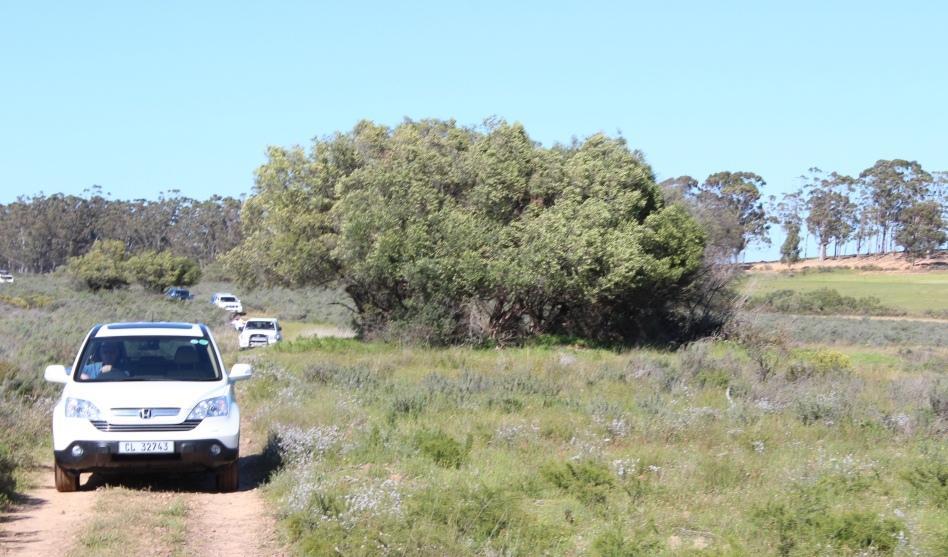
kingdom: Plantae
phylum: Tracheophyta
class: Magnoliopsida
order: Lamiales
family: Oleaceae
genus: Olea
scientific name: Olea europaea
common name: Olive
